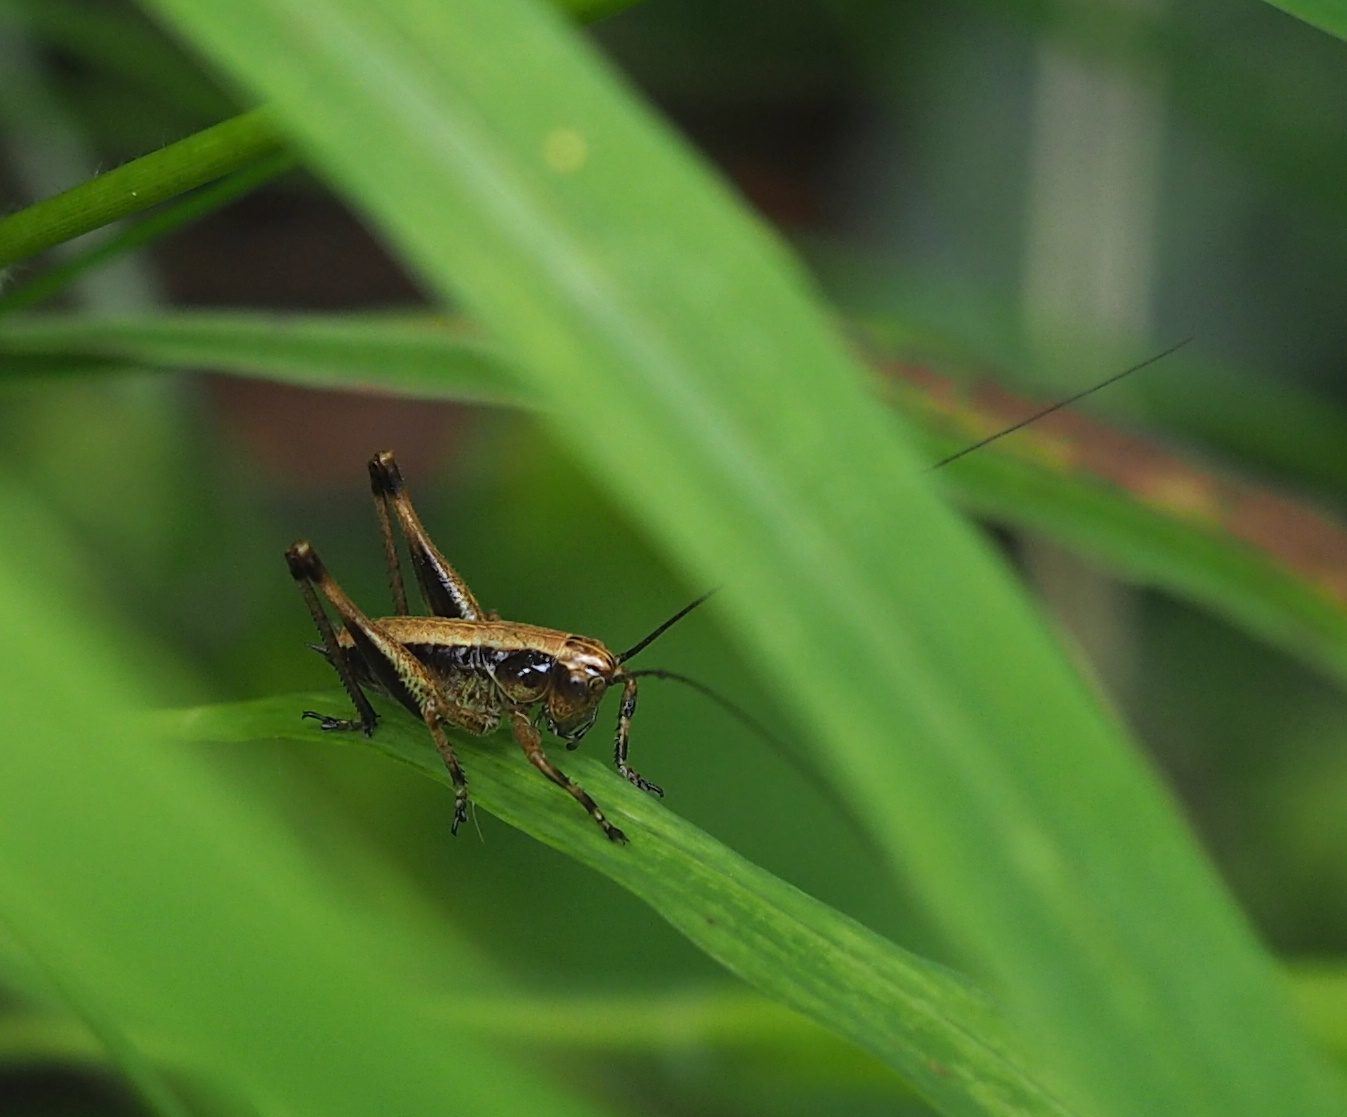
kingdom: Animalia
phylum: Arthropoda
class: Insecta
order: Orthoptera
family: Tettigoniidae
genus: Pholidoptera
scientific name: Pholidoptera griseoaptera
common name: Dark bush-cricket
